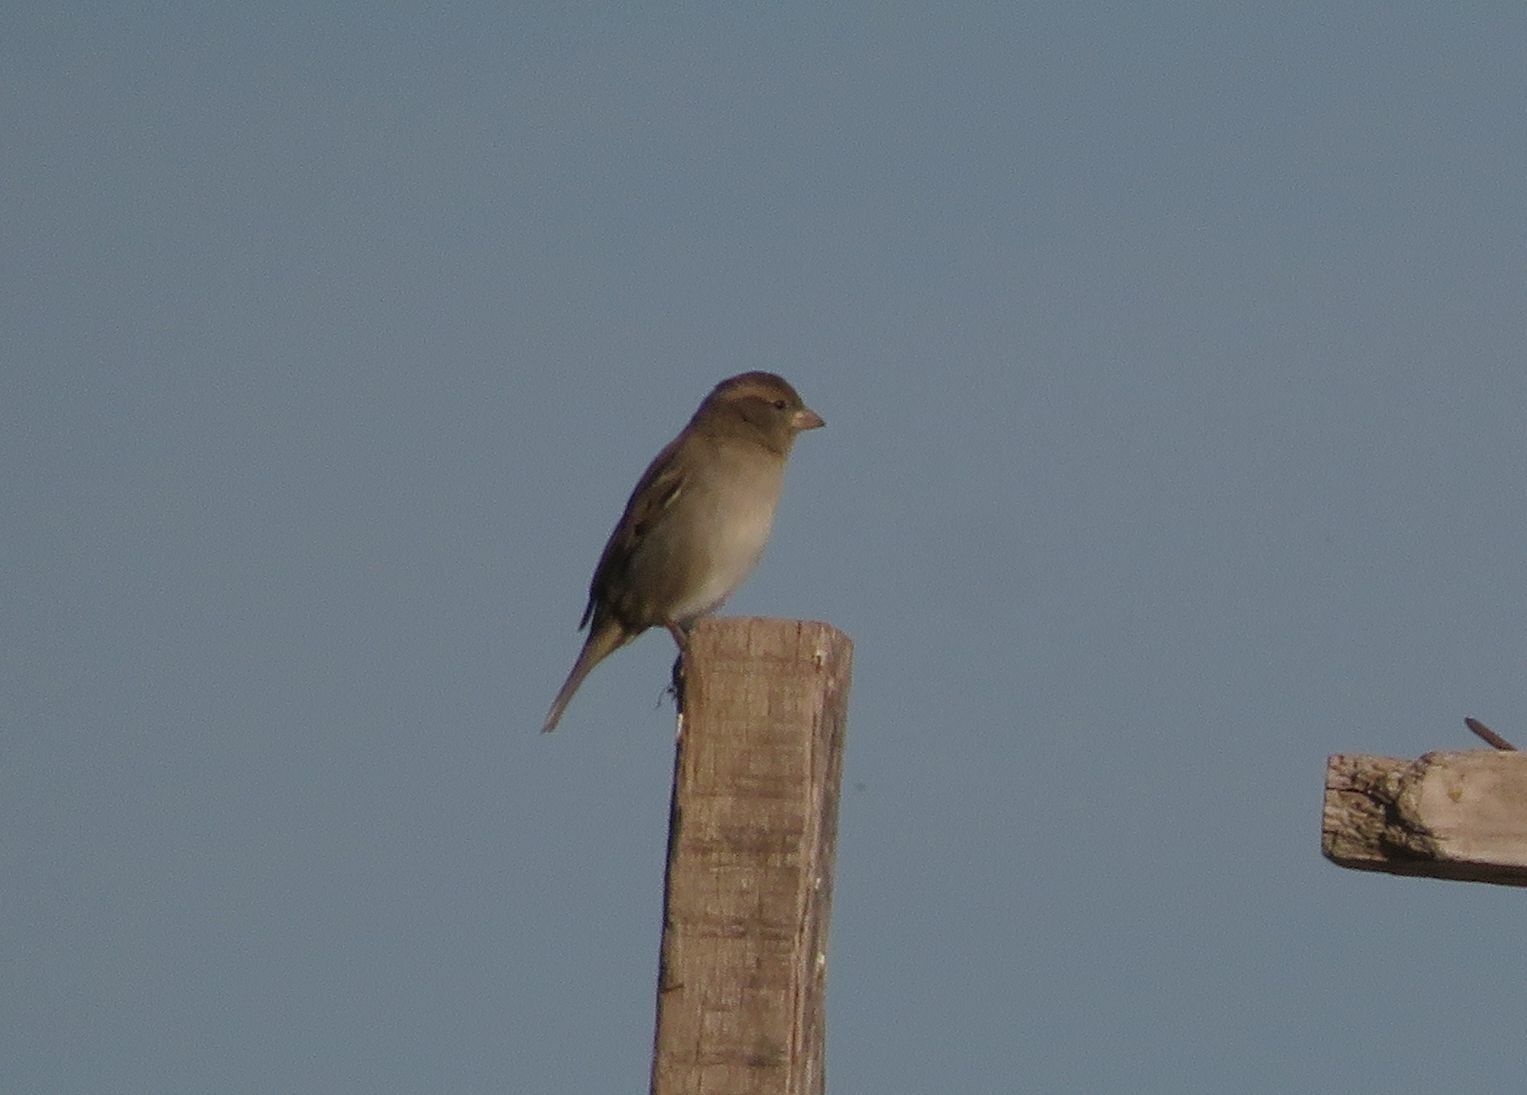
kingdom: Animalia
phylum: Chordata
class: Aves
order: Passeriformes
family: Passeridae
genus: Passer
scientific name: Passer domesticus
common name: House sparrow
